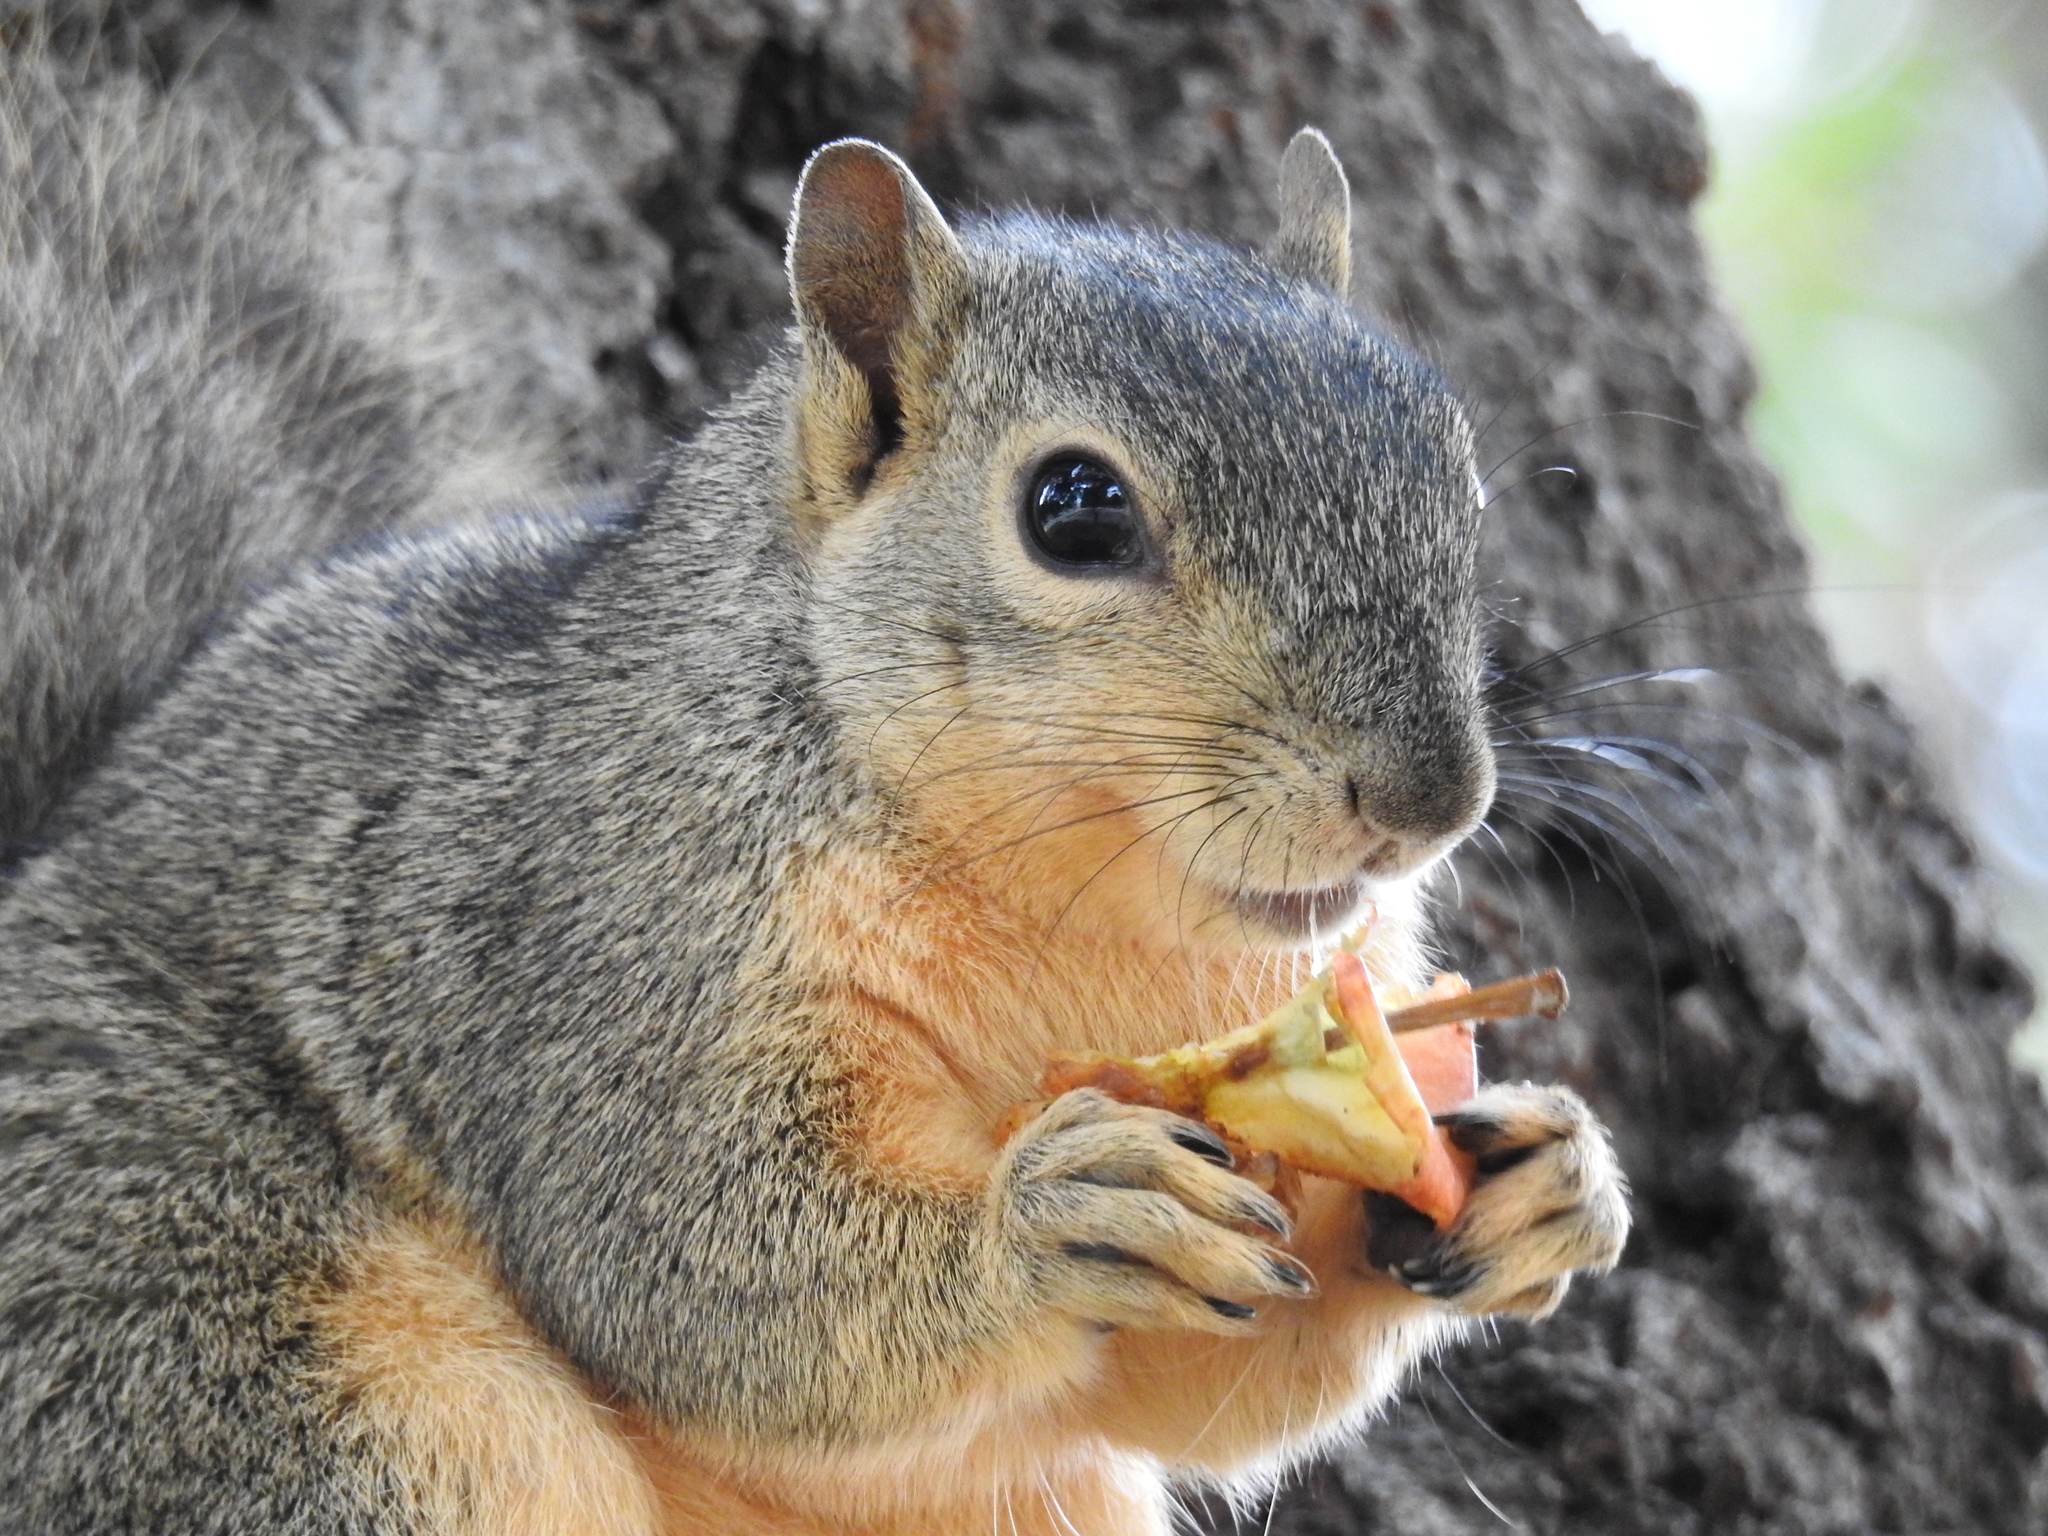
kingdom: Animalia
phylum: Chordata
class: Mammalia
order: Rodentia
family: Sciuridae
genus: Sciurus
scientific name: Sciurus niger
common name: Fox squirrel
